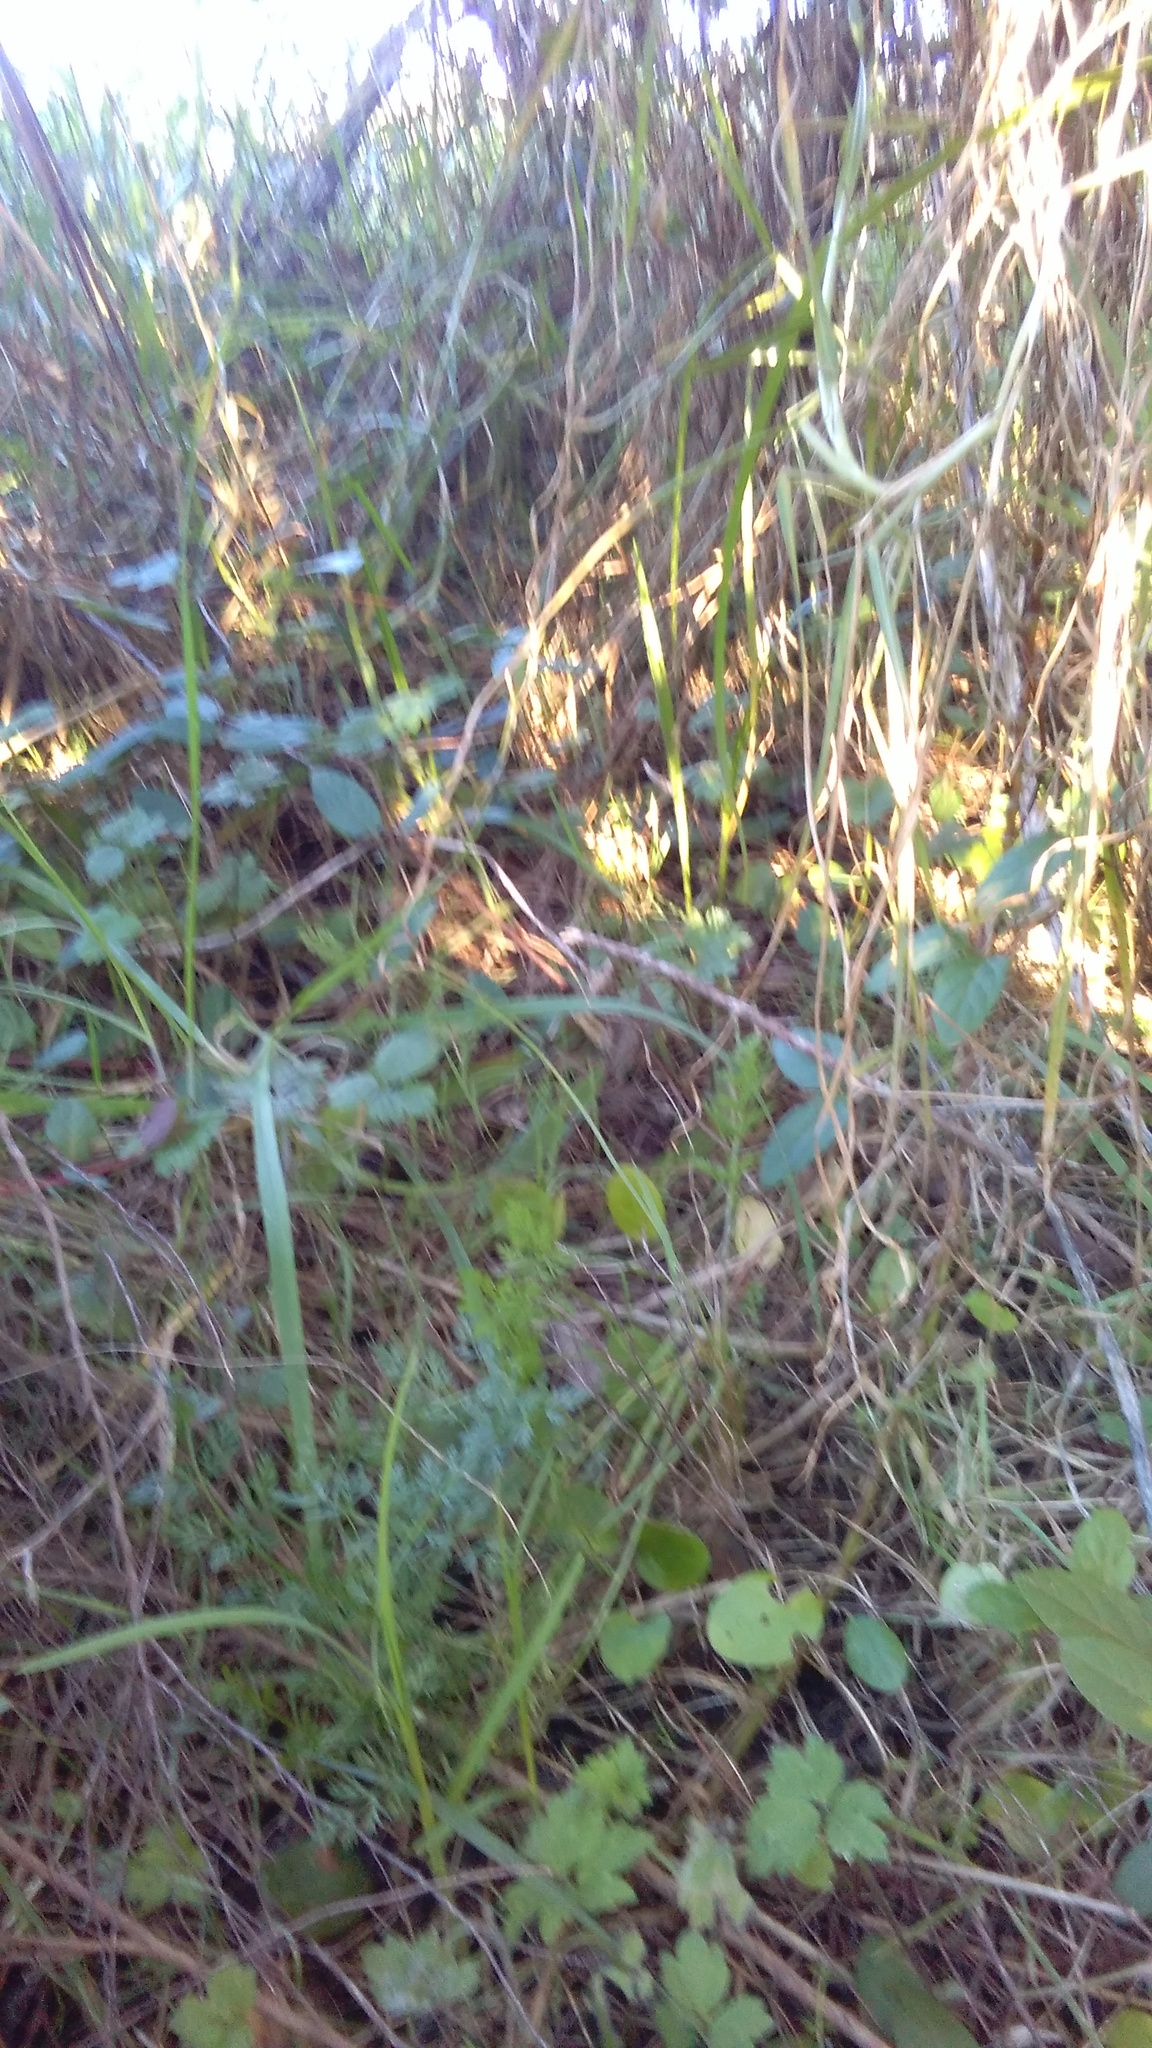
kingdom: Plantae
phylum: Tracheophyta
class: Magnoliopsida
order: Dipsacales
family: Caprifoliaceae
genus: Lonicera
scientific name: Lonicera japonica
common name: Japanese honeysuckle
